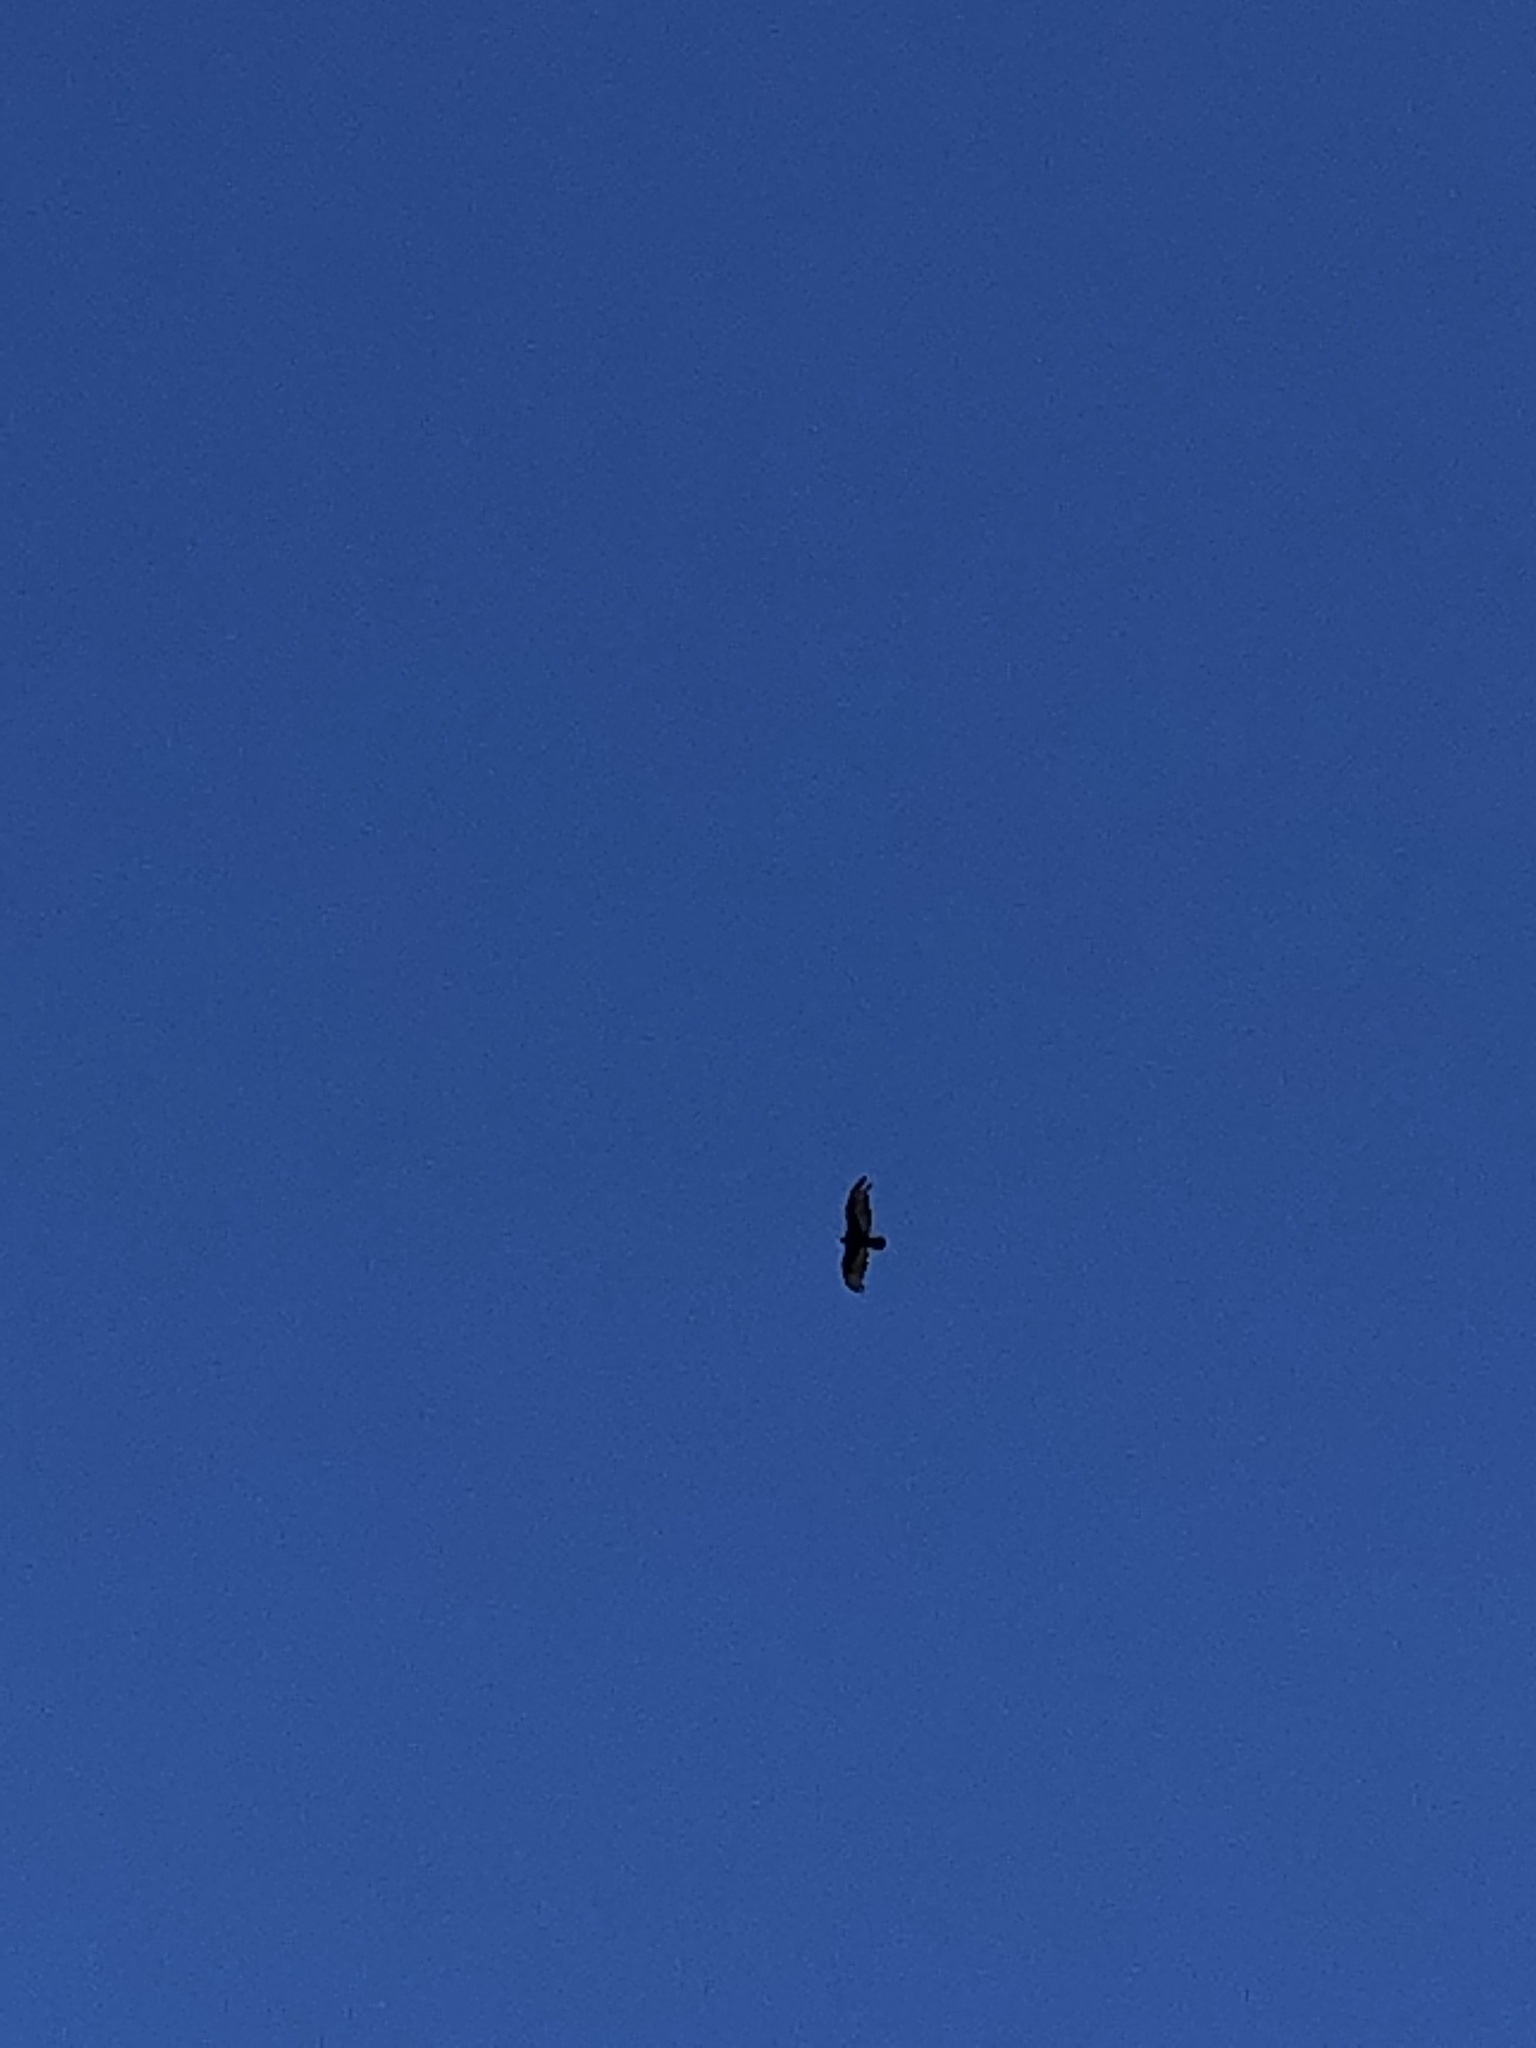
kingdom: Animalia
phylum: Chordata
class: Aves
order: Accipitriformes
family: Cathartidae
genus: Cathartes
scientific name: Cathartes aura
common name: Turkey vulture
